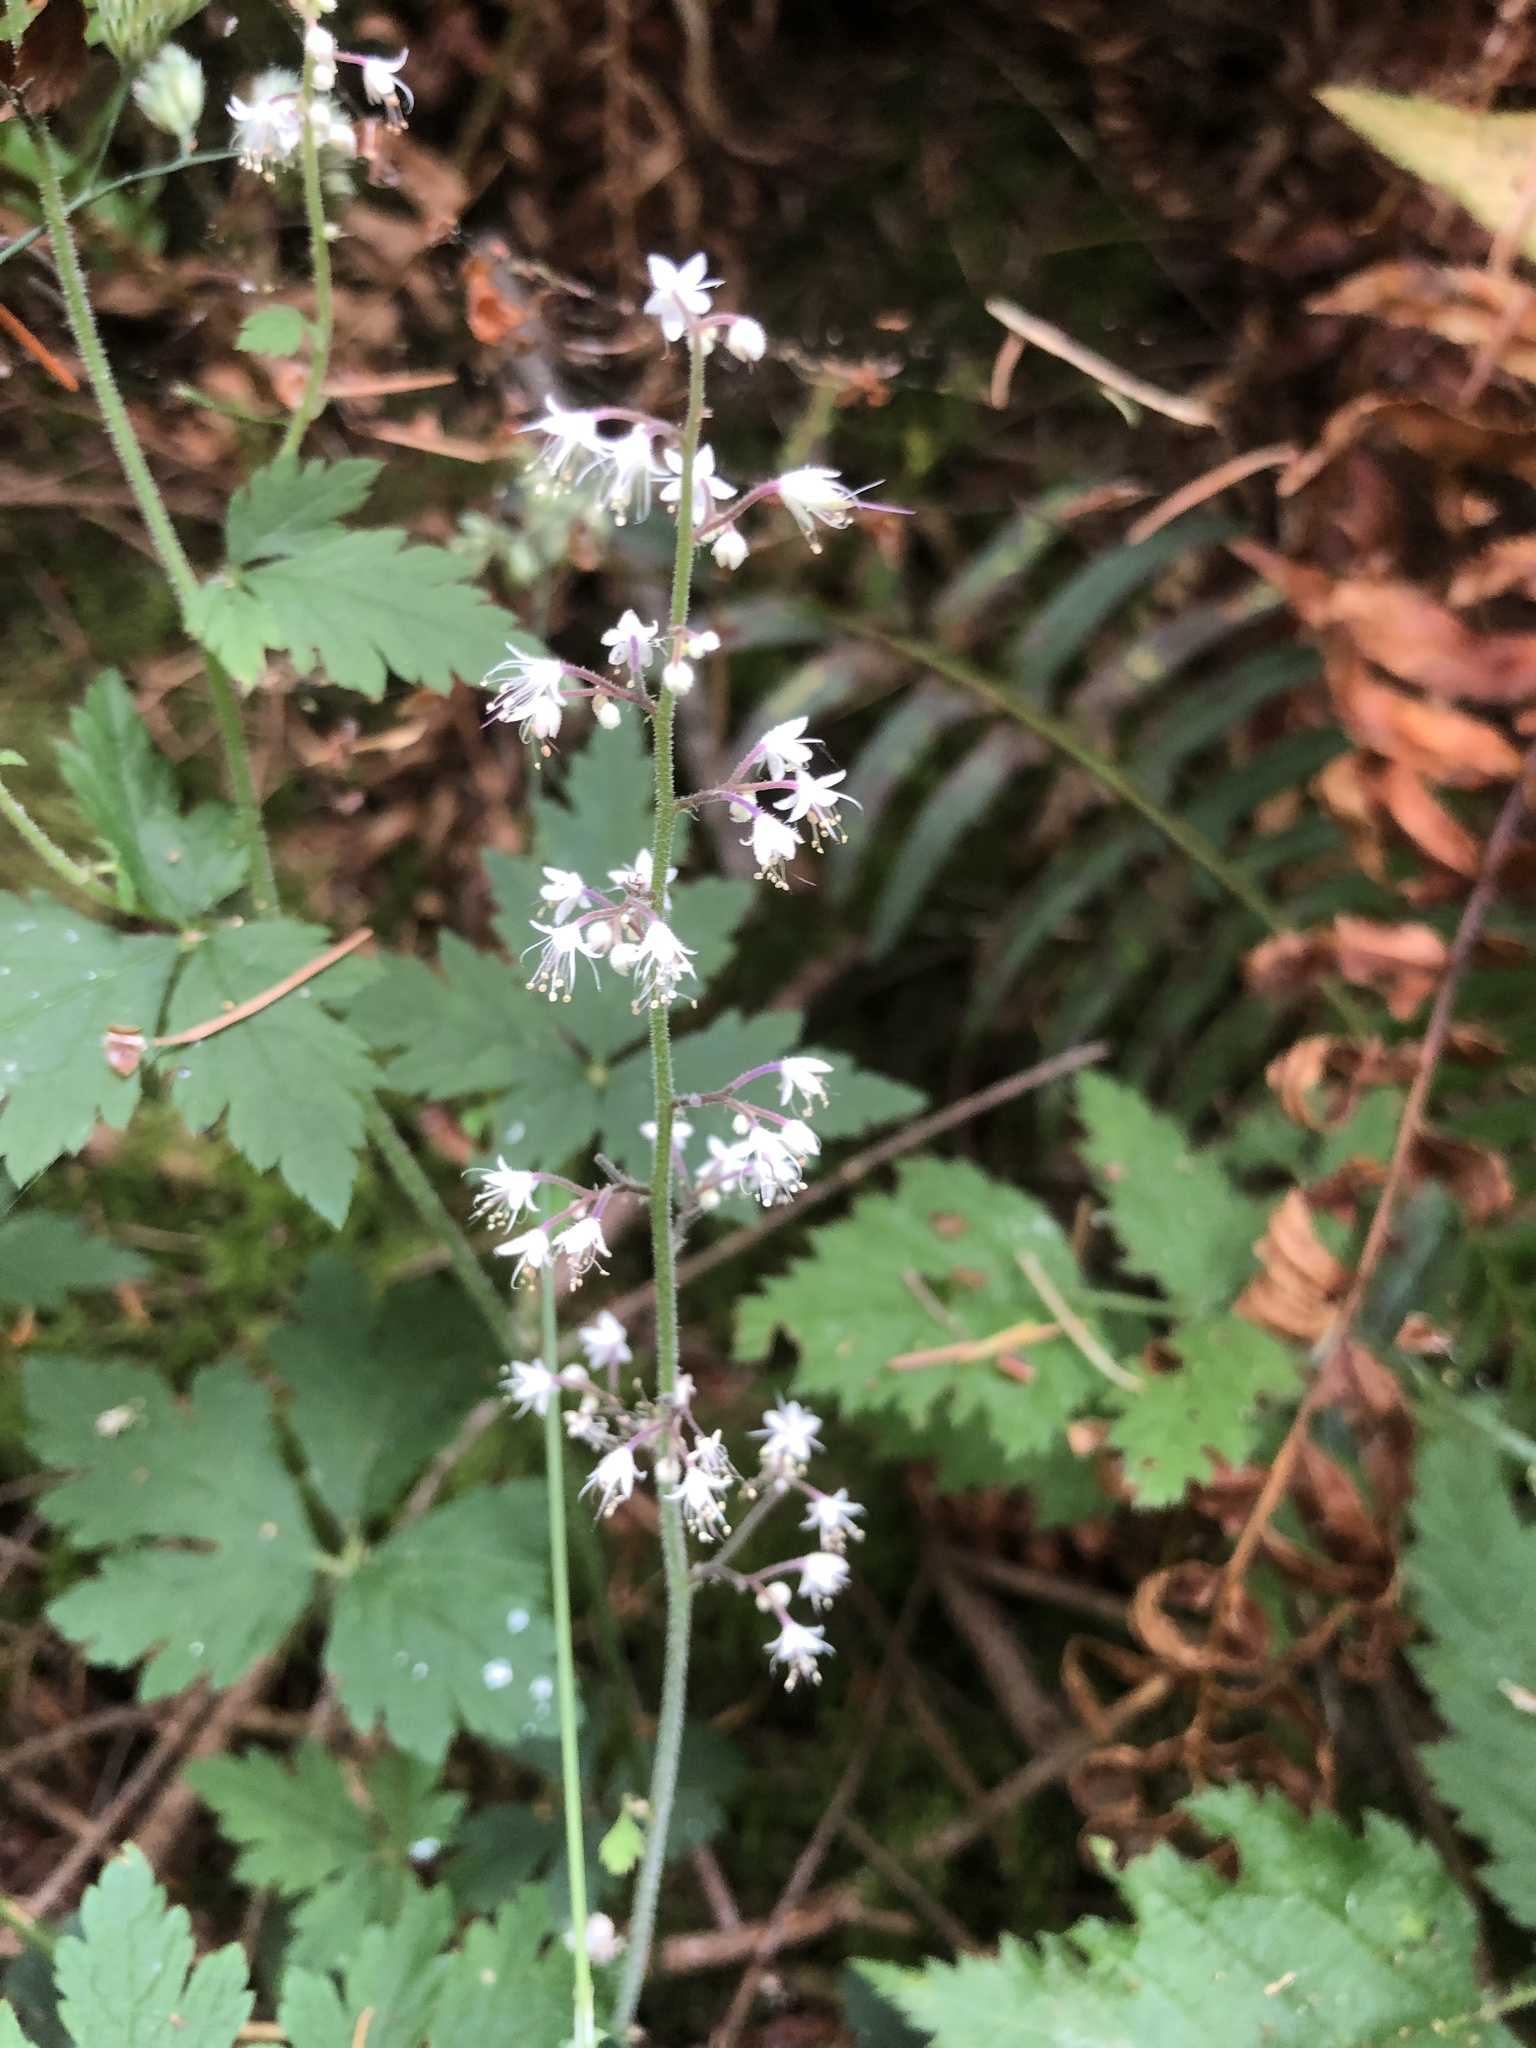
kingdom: Plantae
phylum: Tracheophyta
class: Magnoliopsida
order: Saxifragales
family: Saxifragaceae
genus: Tiarella
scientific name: Tiarella trifoliata
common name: Sugar-scoop
